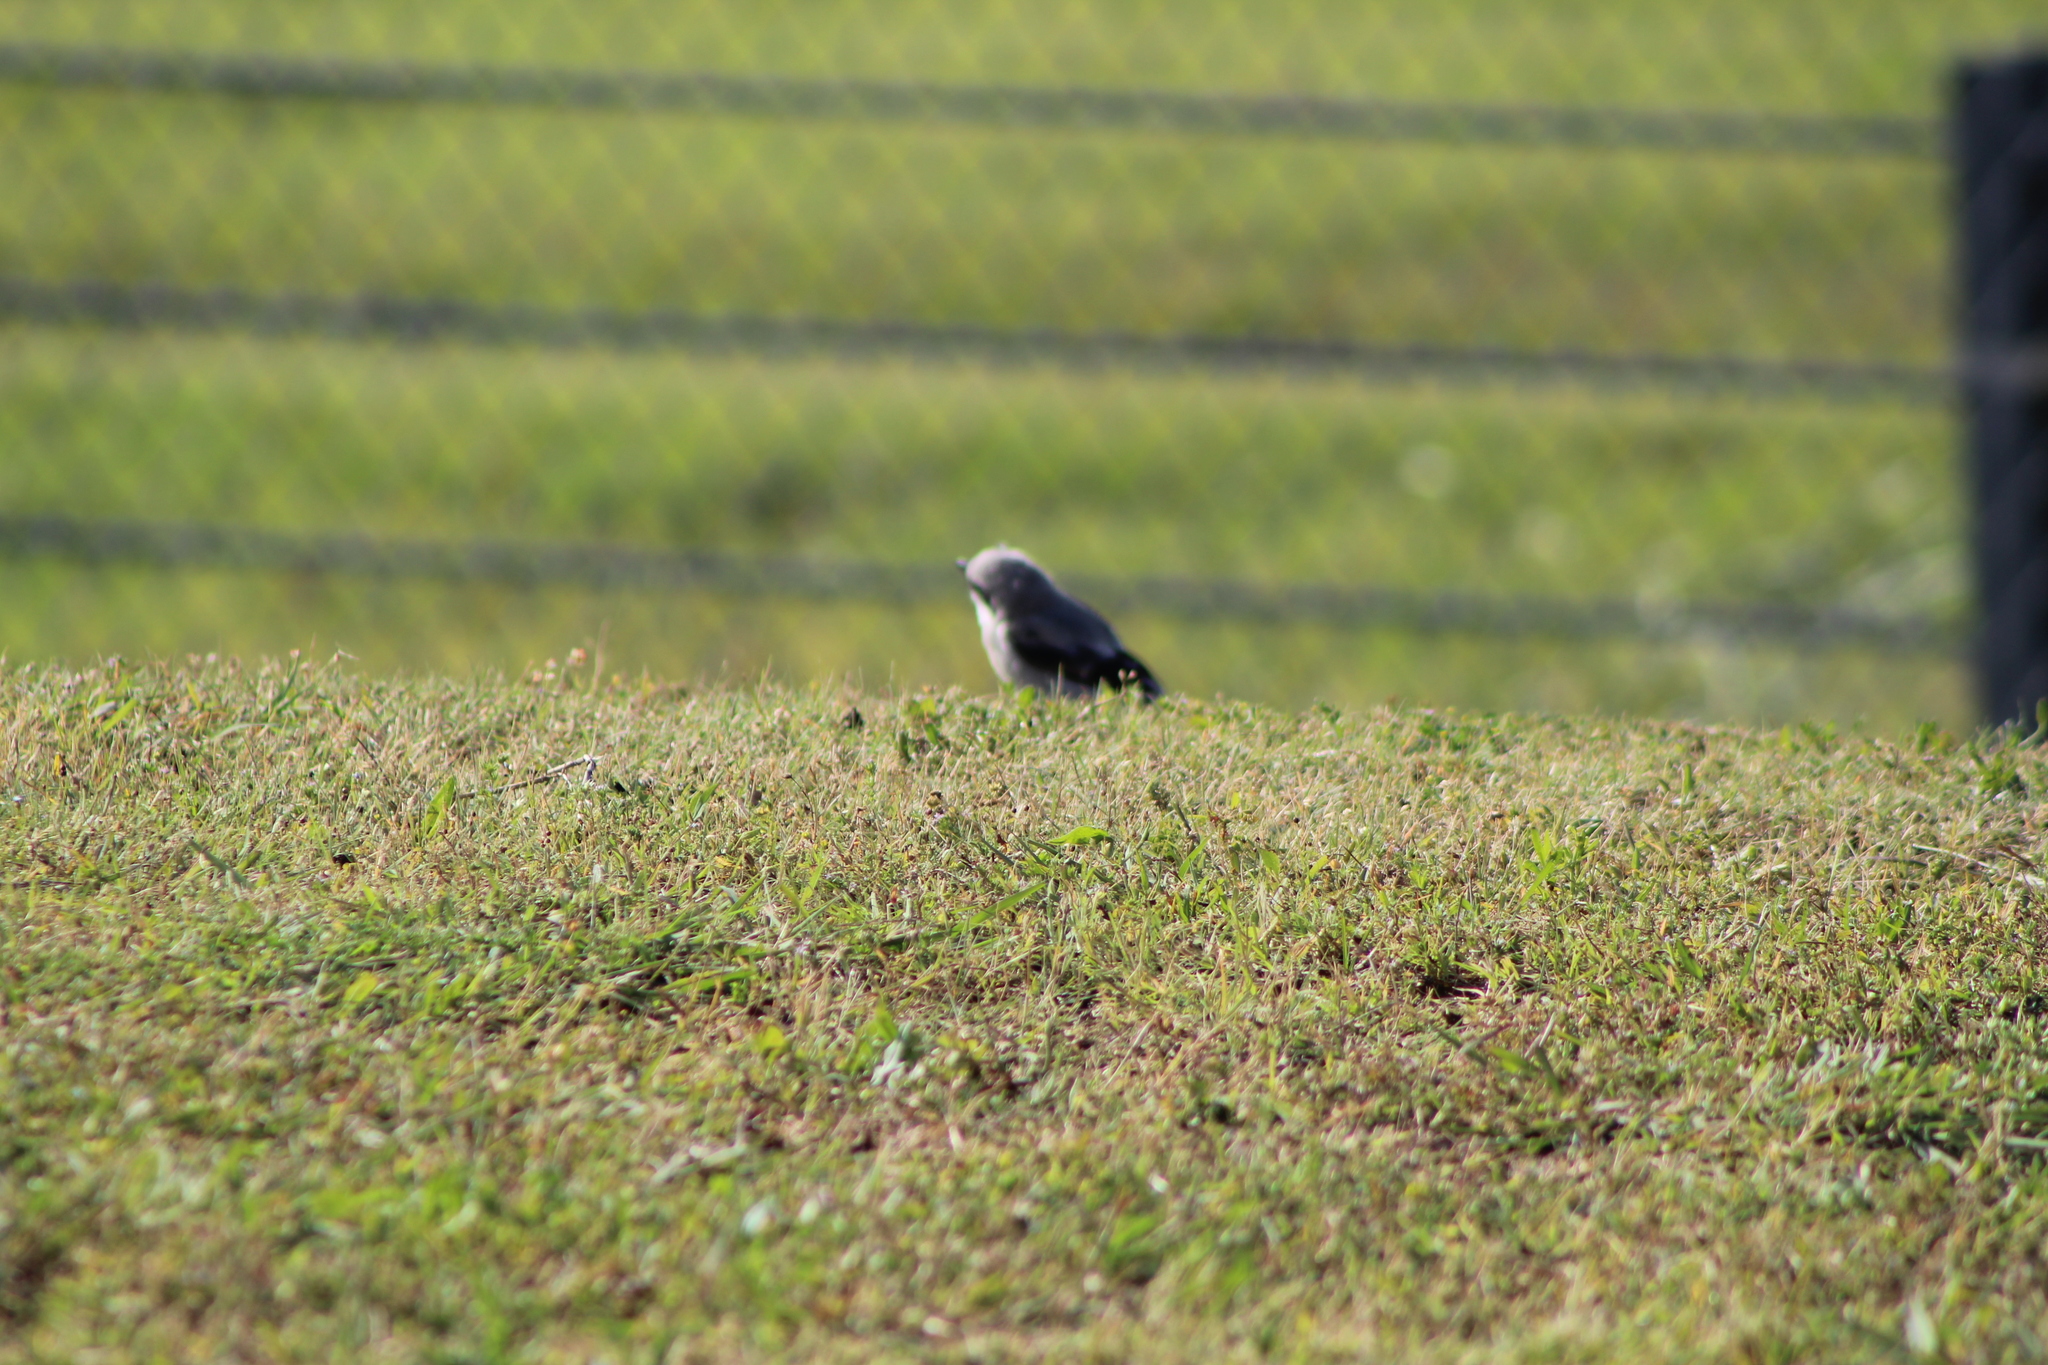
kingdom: Animalia
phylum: Chordata
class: Aves
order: Passeriformes
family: Laniidae
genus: Lanius
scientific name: Lanius ludovicianus
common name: Loggerhead shrike
